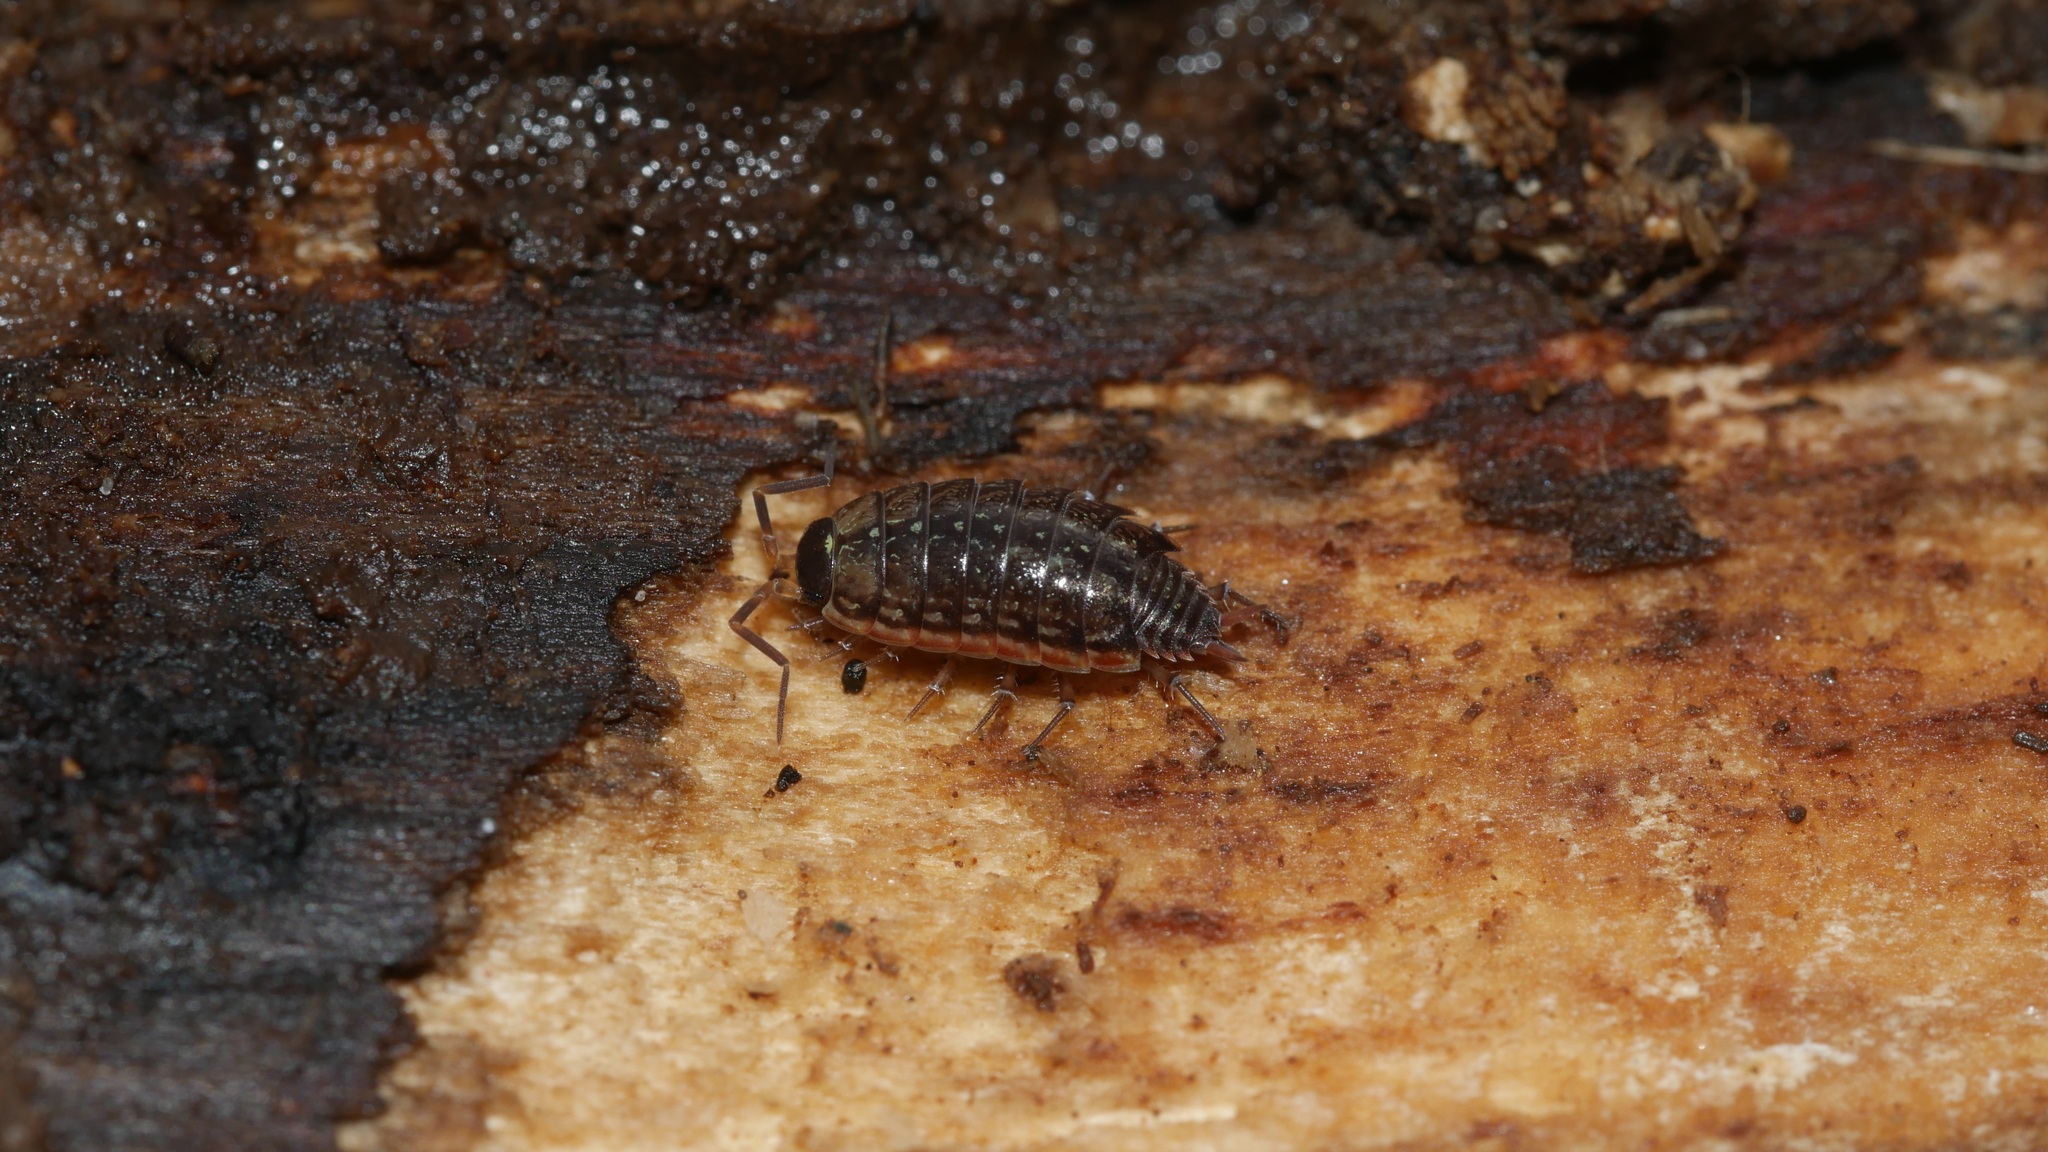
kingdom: Animalia
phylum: Arthropoda
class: Malacostraca
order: Isopoda
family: Philosciidae
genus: Philoscia
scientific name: Philoscia muscorum
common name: Common striped woodlouse
